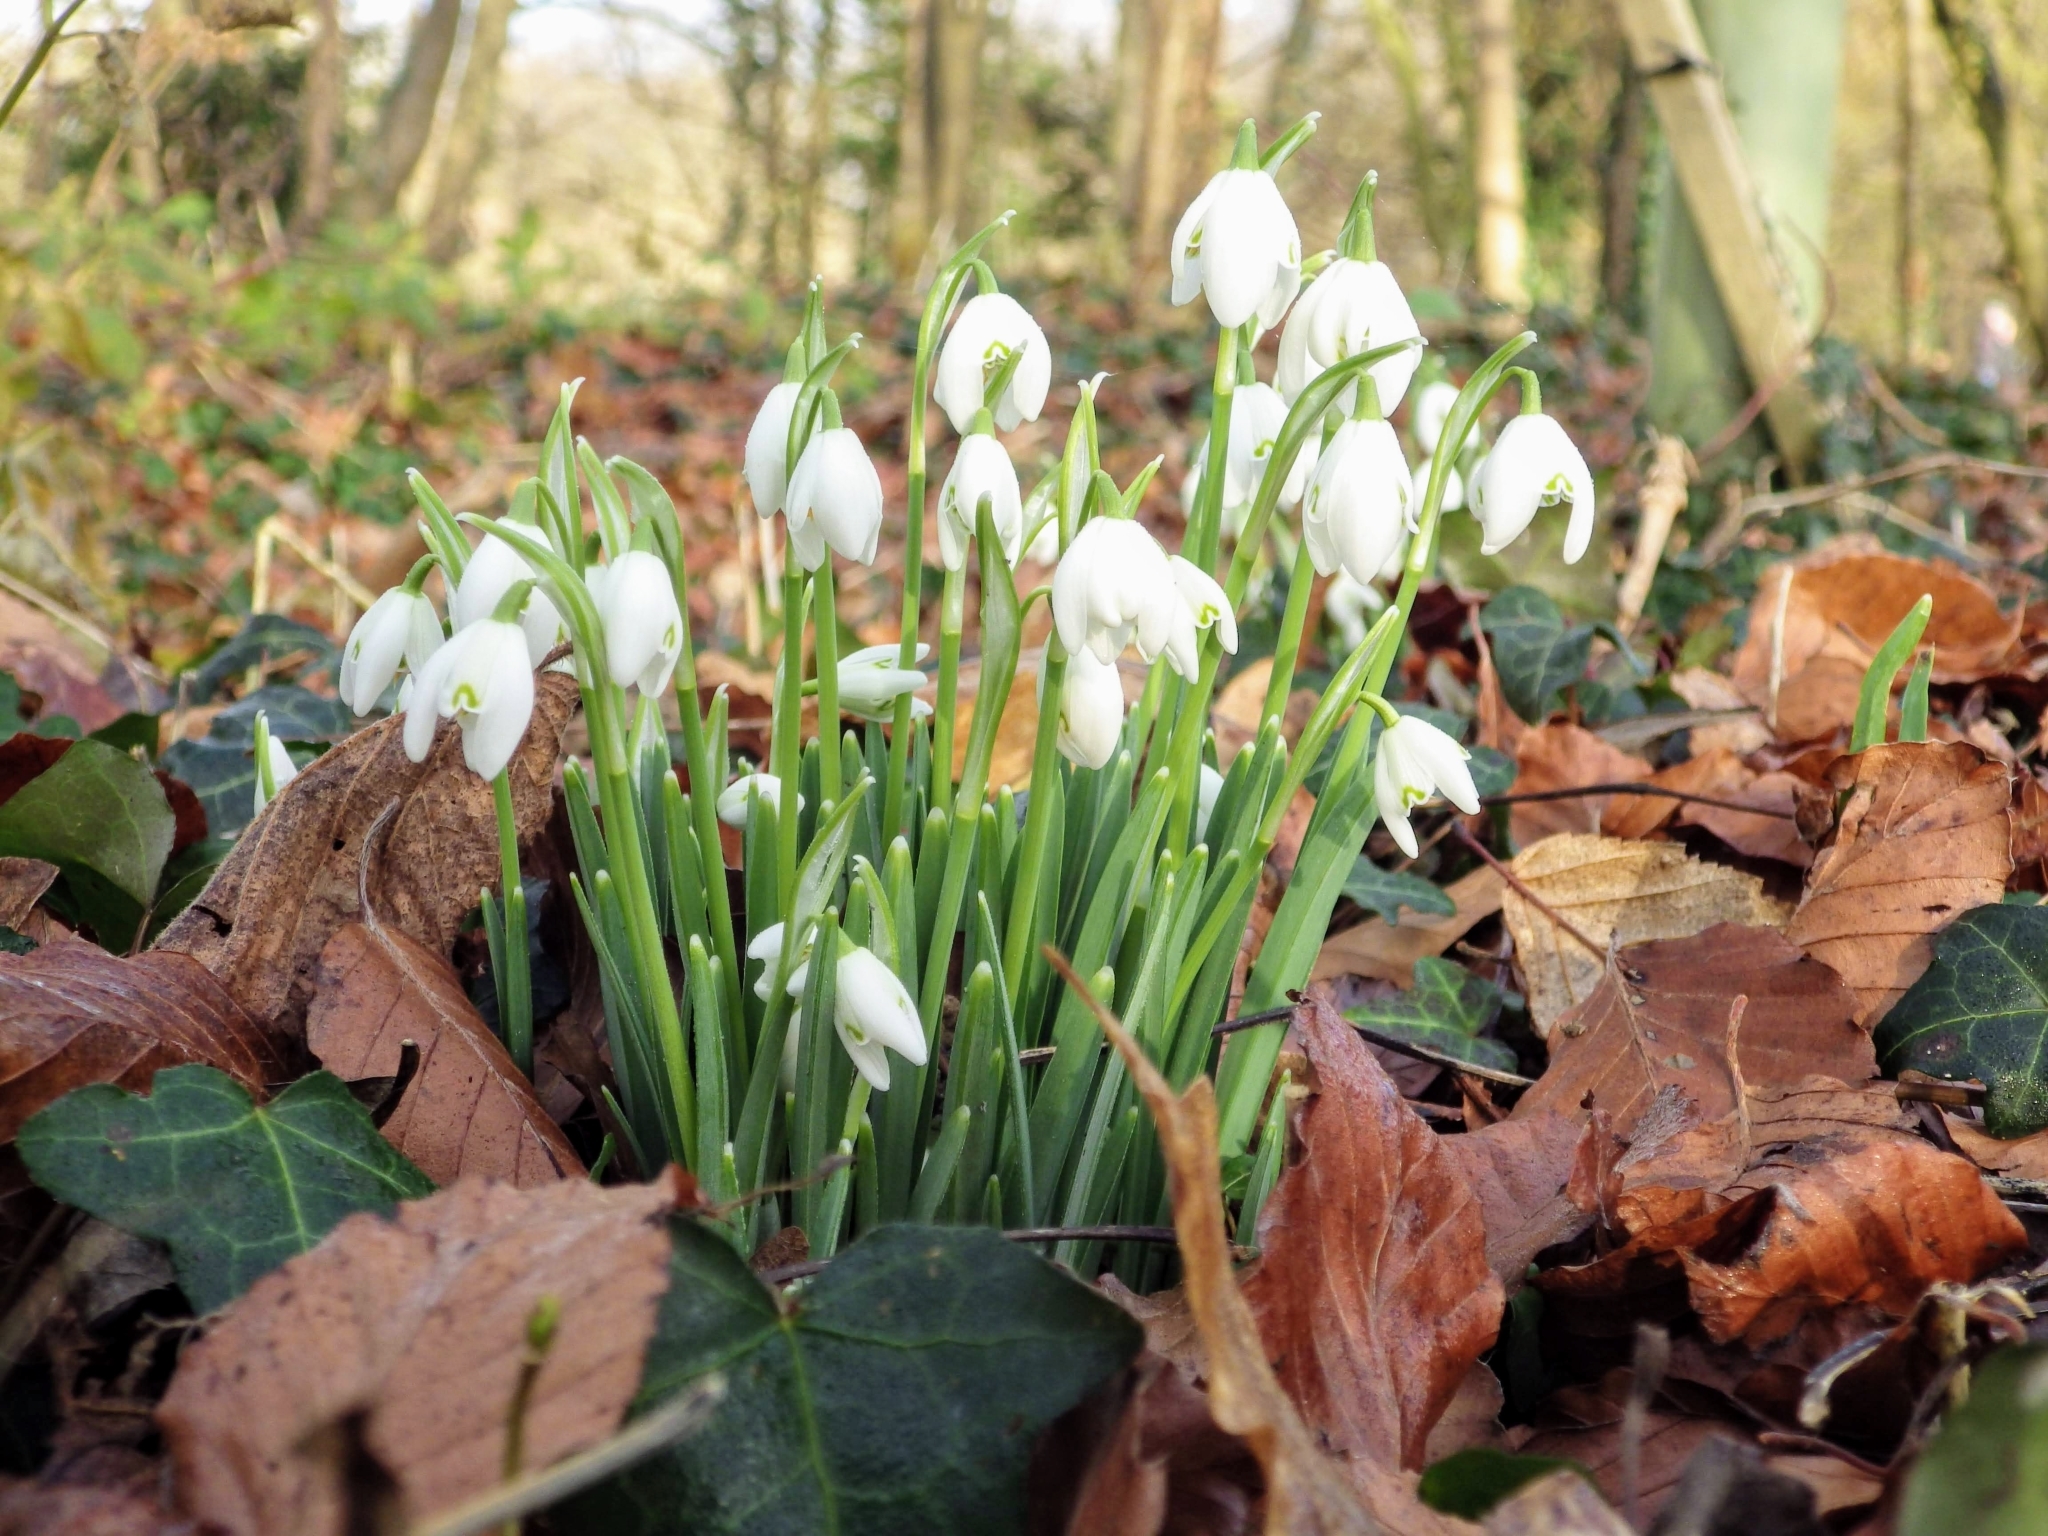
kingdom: Plantae
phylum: Tracheophyta
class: Liliopsida
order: Asparagales
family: Amaryllidaceae
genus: Galanthus
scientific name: Galanthus nivalis
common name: Snowdrop
